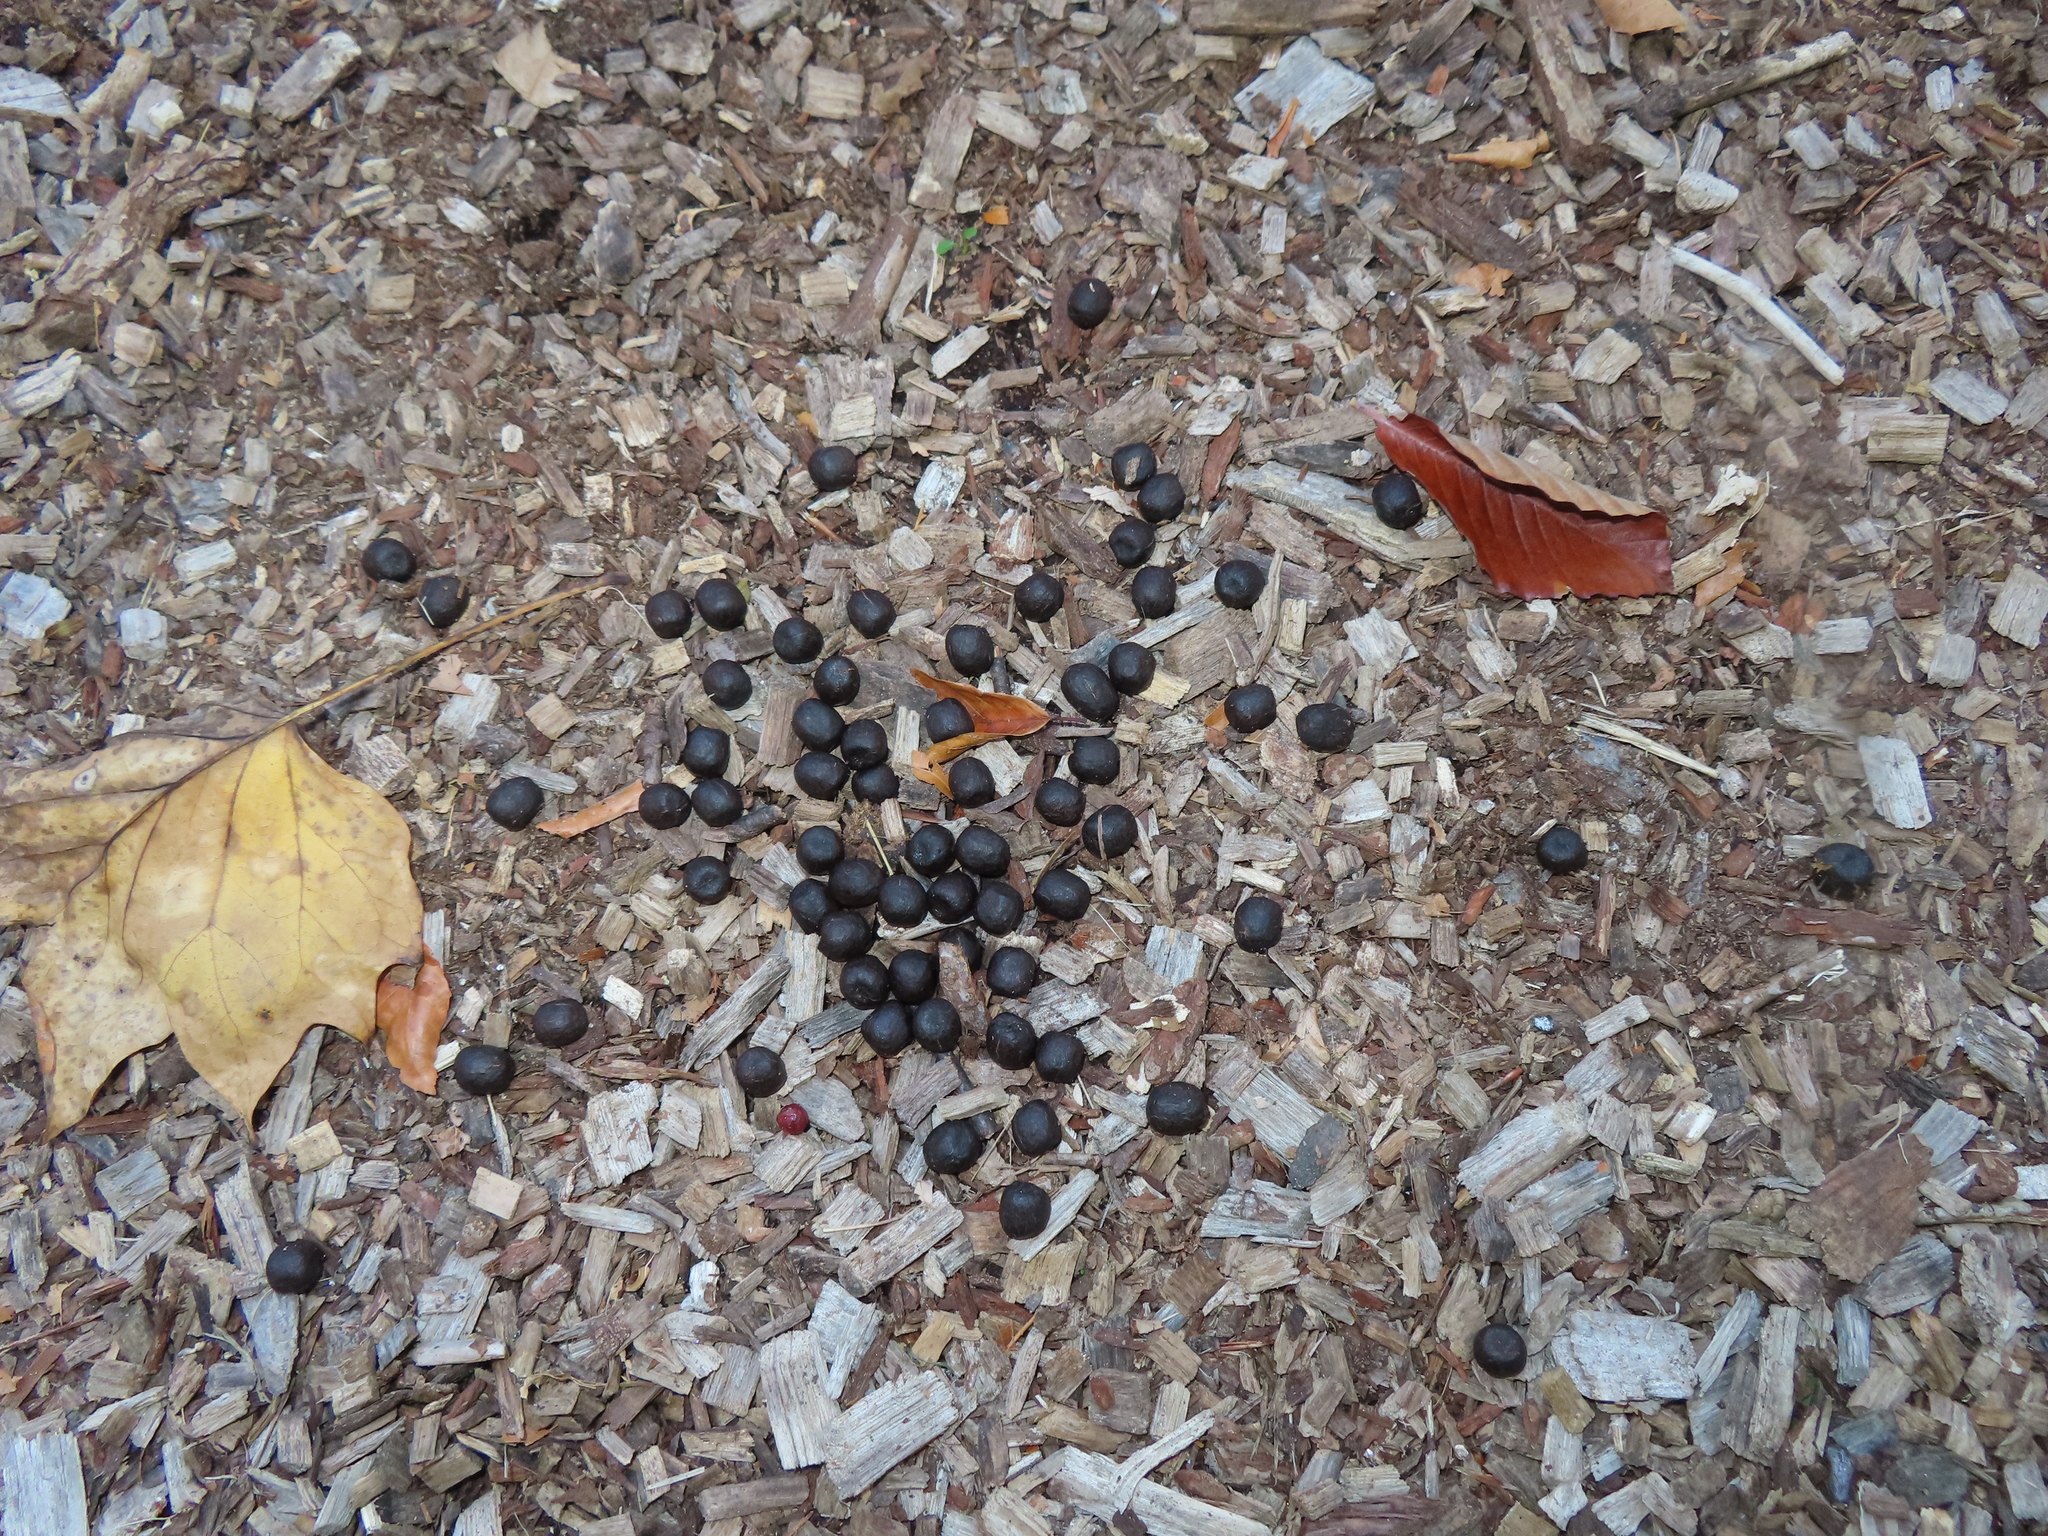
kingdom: Animalia
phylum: Chordata
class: Mammalia
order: Artiodactyla
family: Cervidae
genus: Odocoileus
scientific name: Odocoileus virginianus
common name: White-tailed deer
